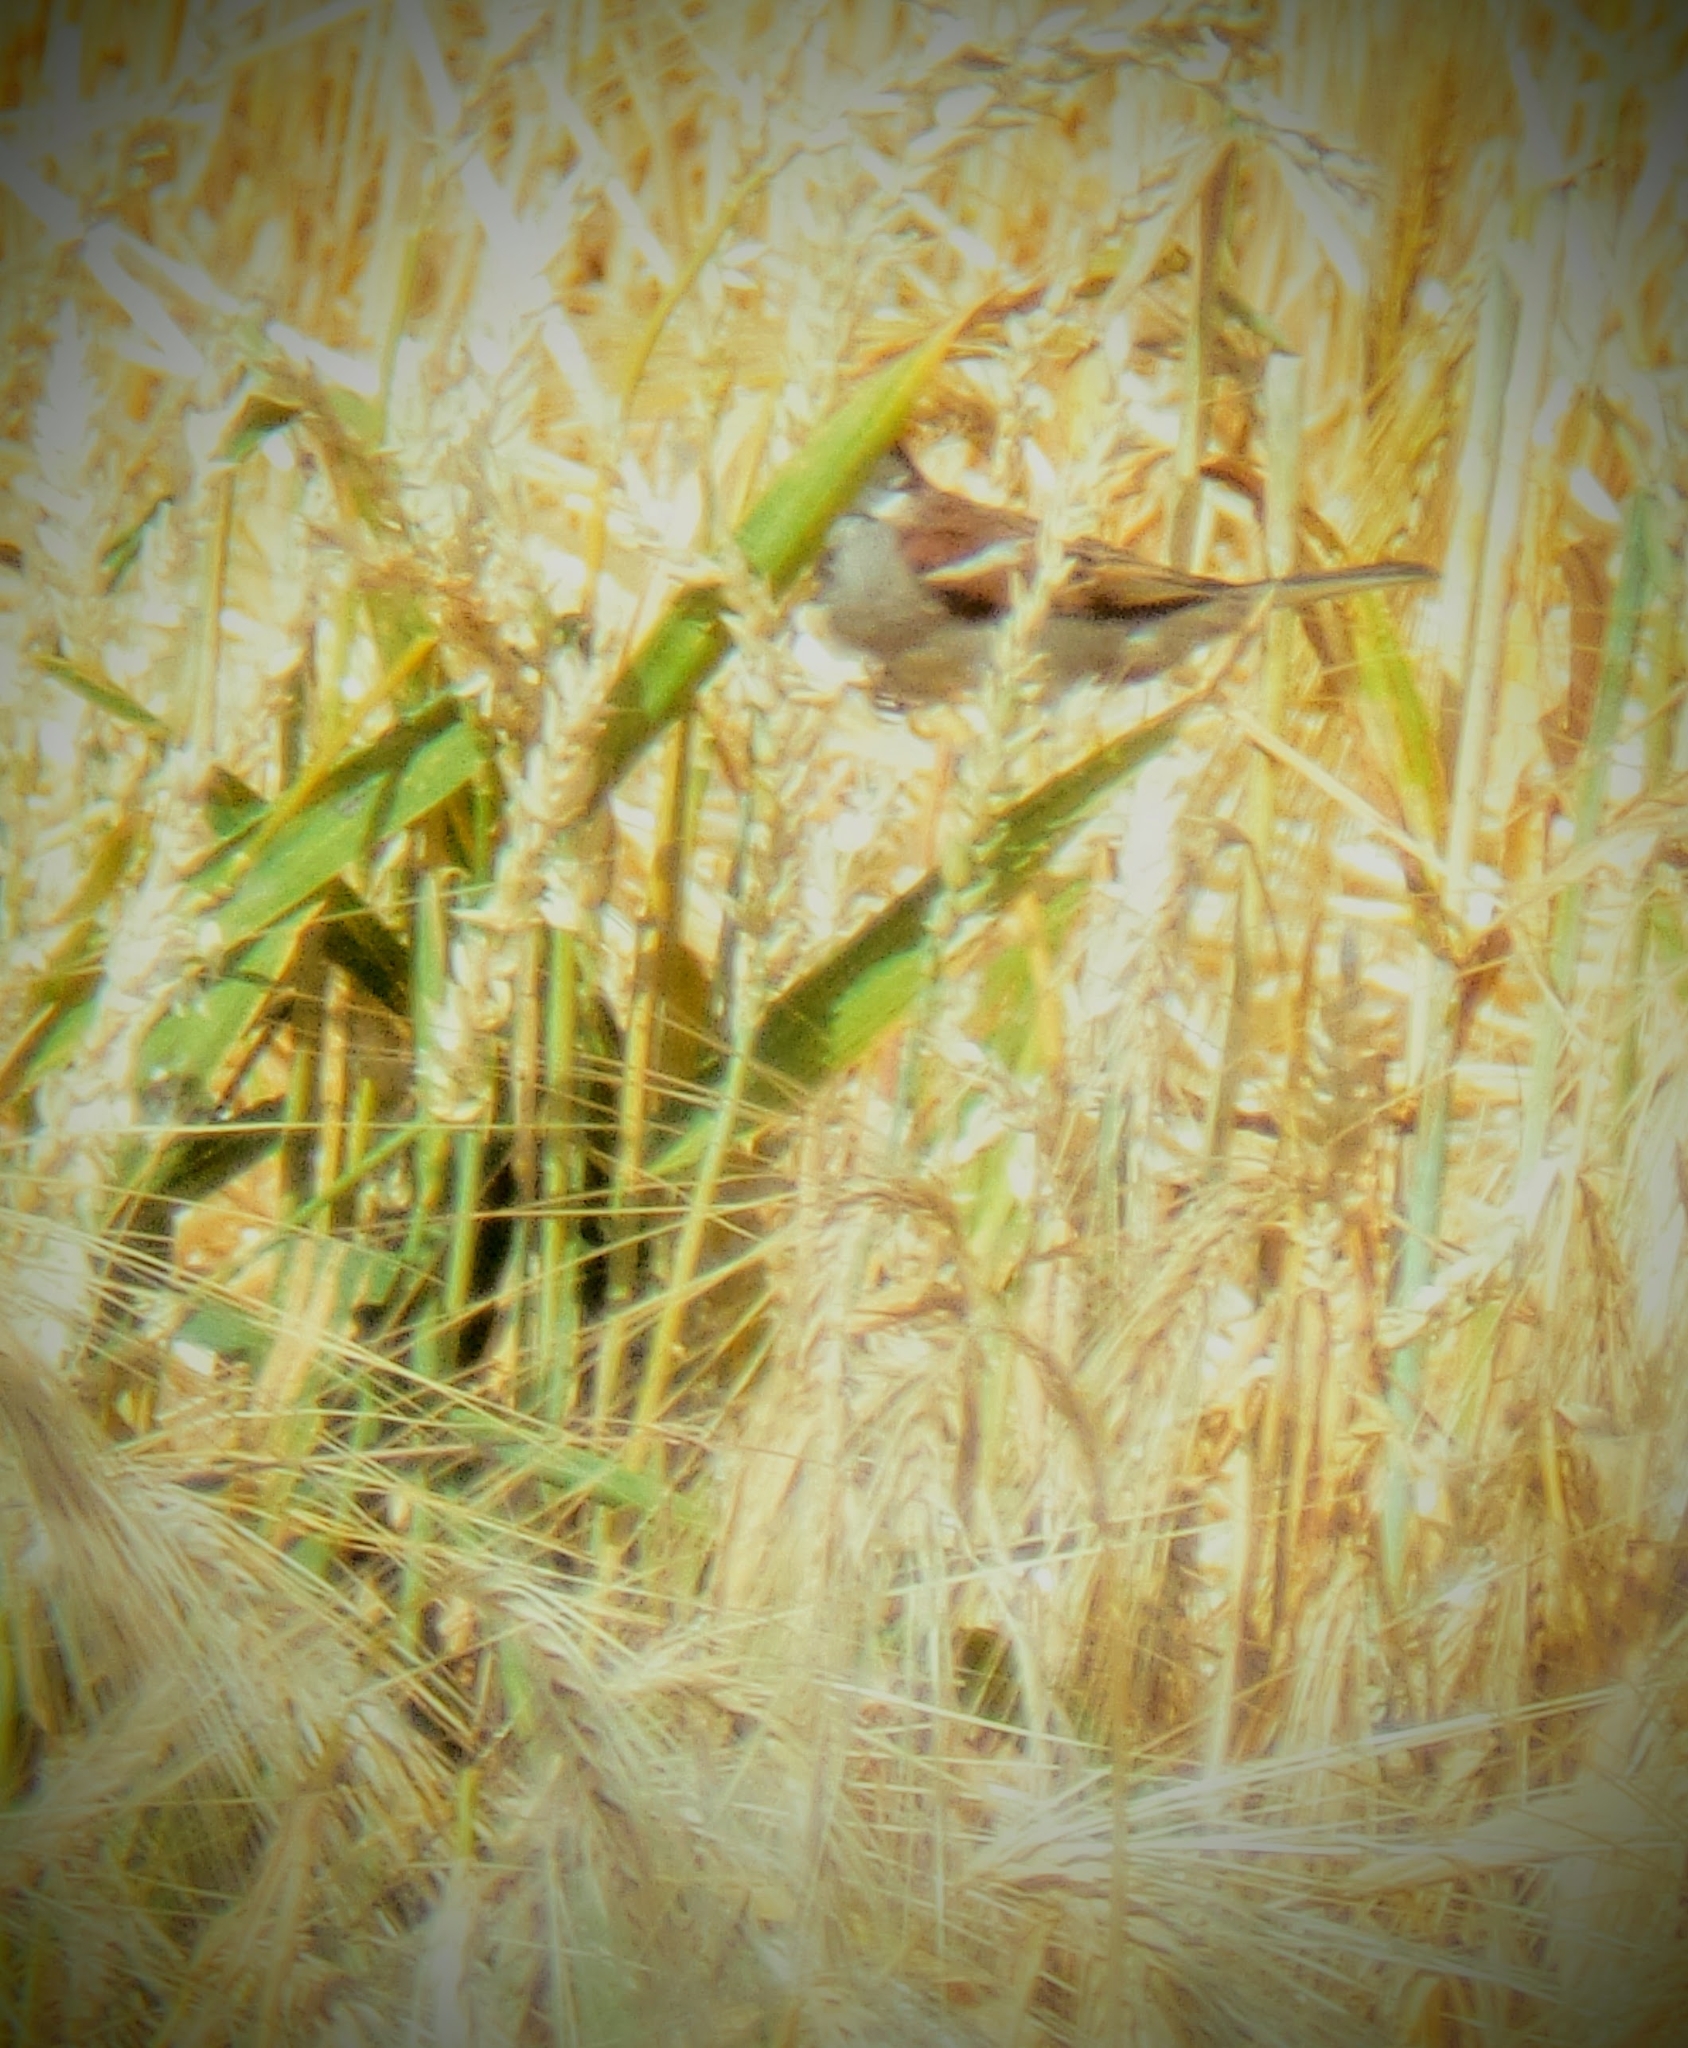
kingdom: Animalia
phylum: Chordata
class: Aves
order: Passeriformes
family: Passeridae
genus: Passer
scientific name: Passer domesticus
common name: House sparrow
